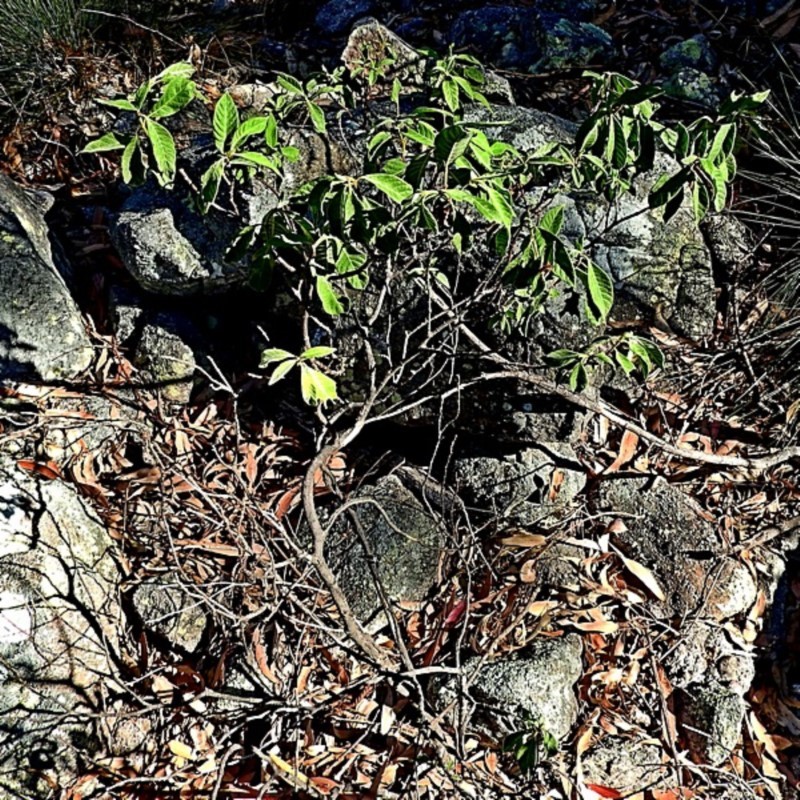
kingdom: Plantae
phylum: Tracheophyta
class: Magnoliopsida
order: Gentianales
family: Rubiaceae
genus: Psychotria
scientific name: Psychotria loniceroides
